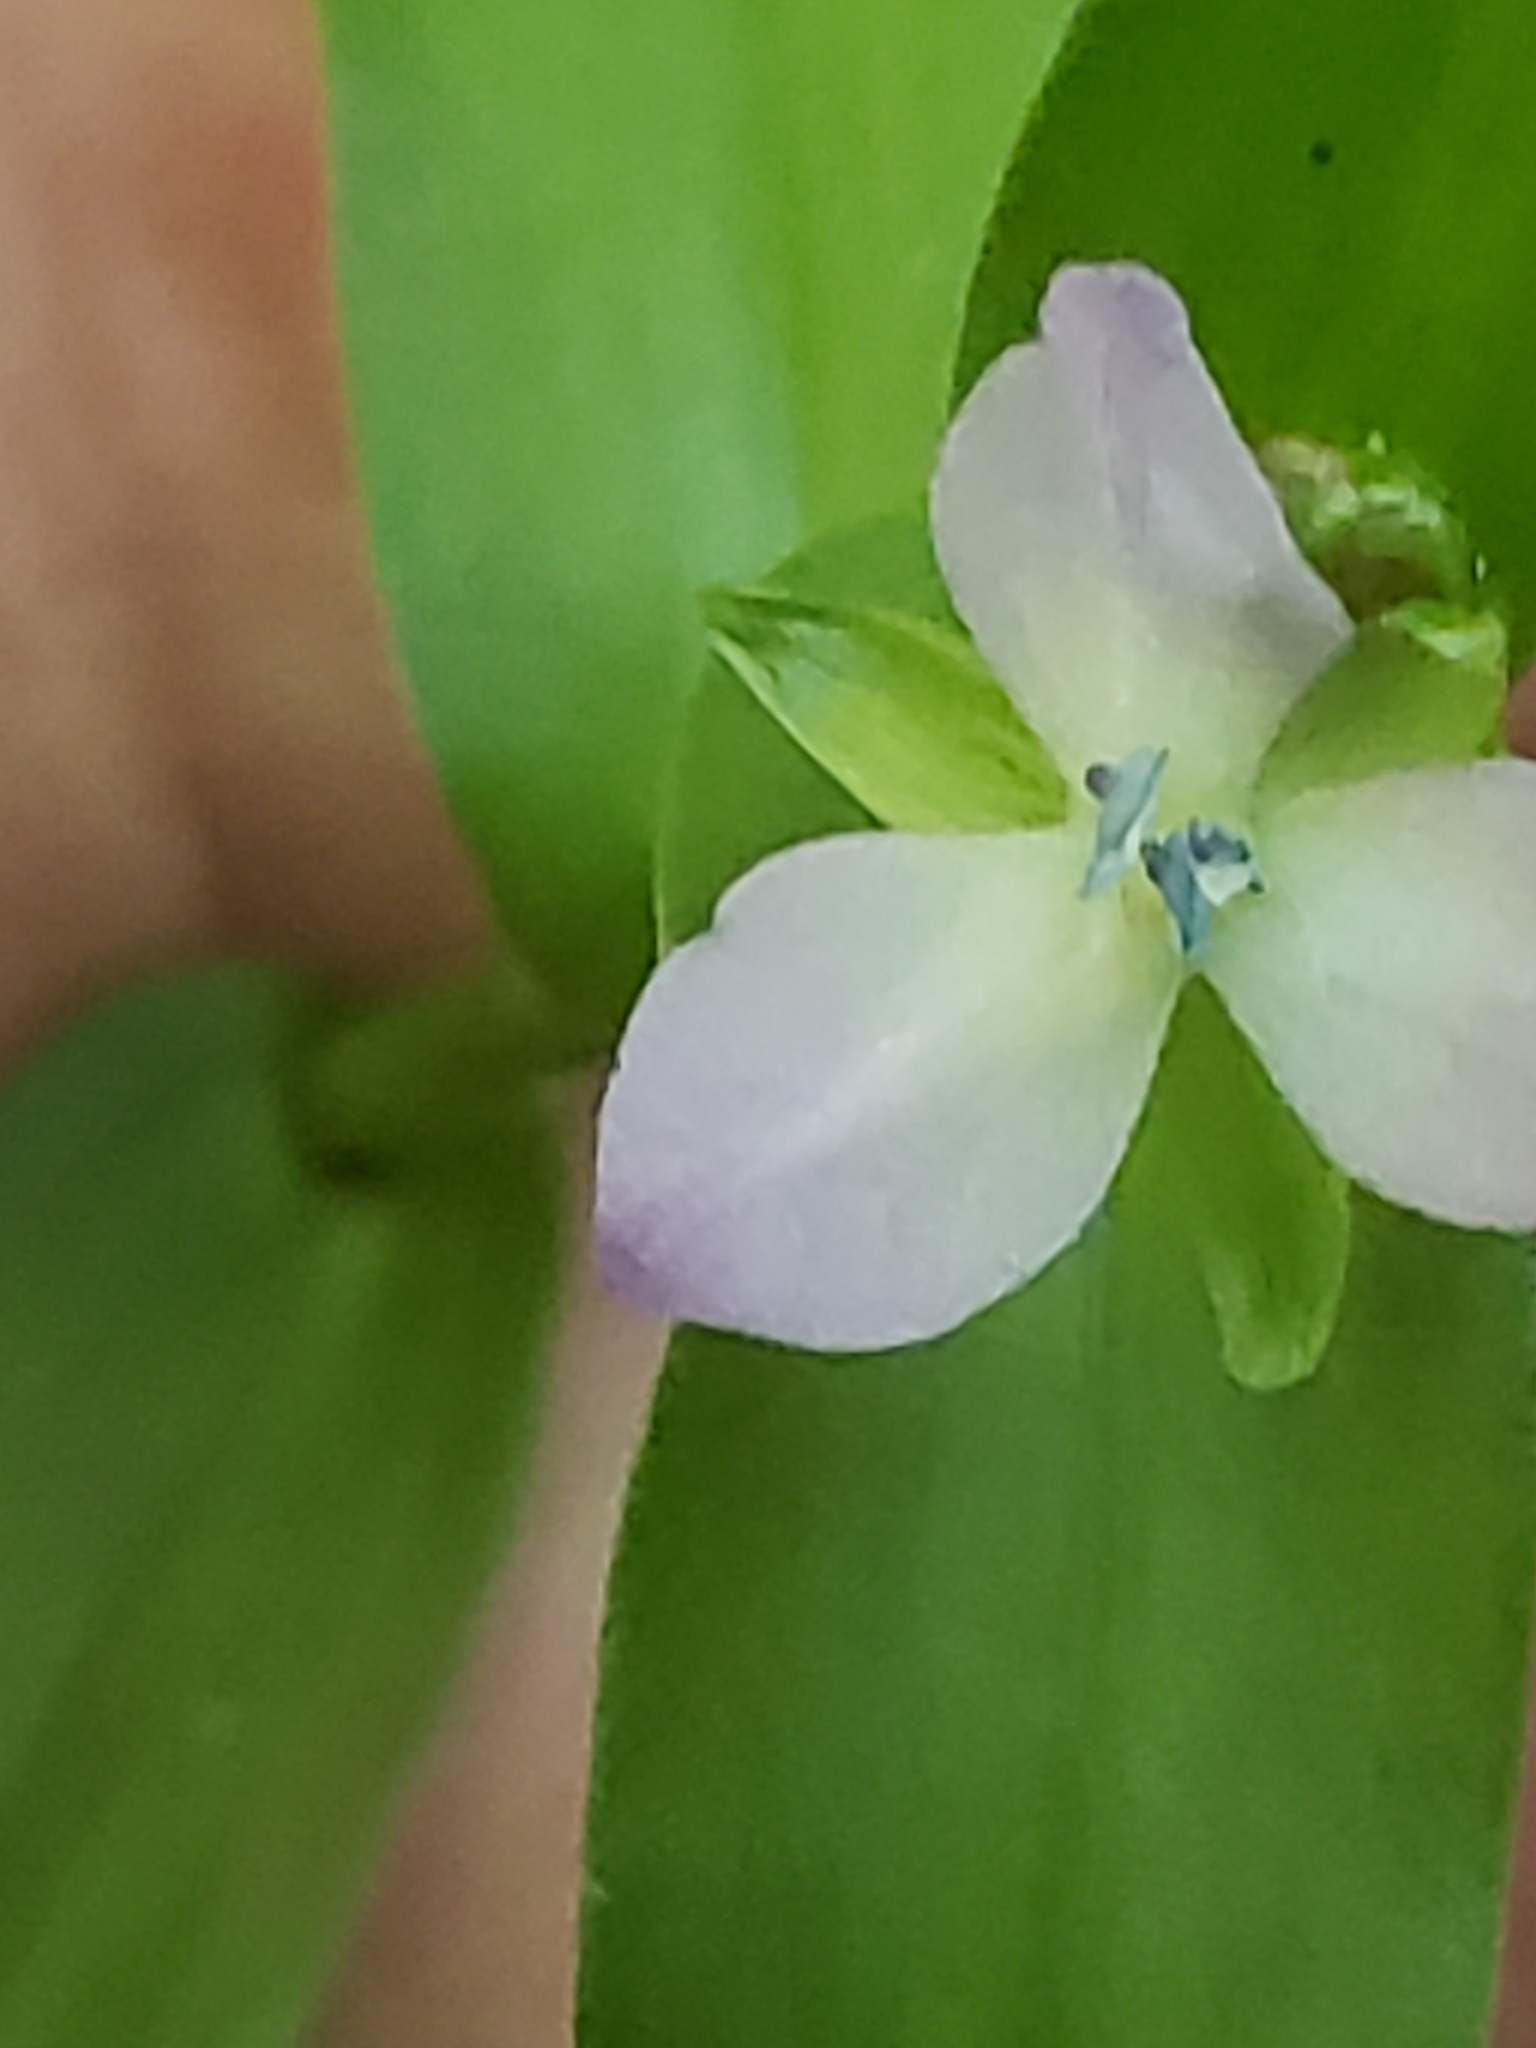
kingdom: Plantae
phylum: Tracheophyta
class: Liliopsida
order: Commelinales
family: Commelinaceae
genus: Murdannia
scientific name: Murdannia keisak
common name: Wartremoving herb
